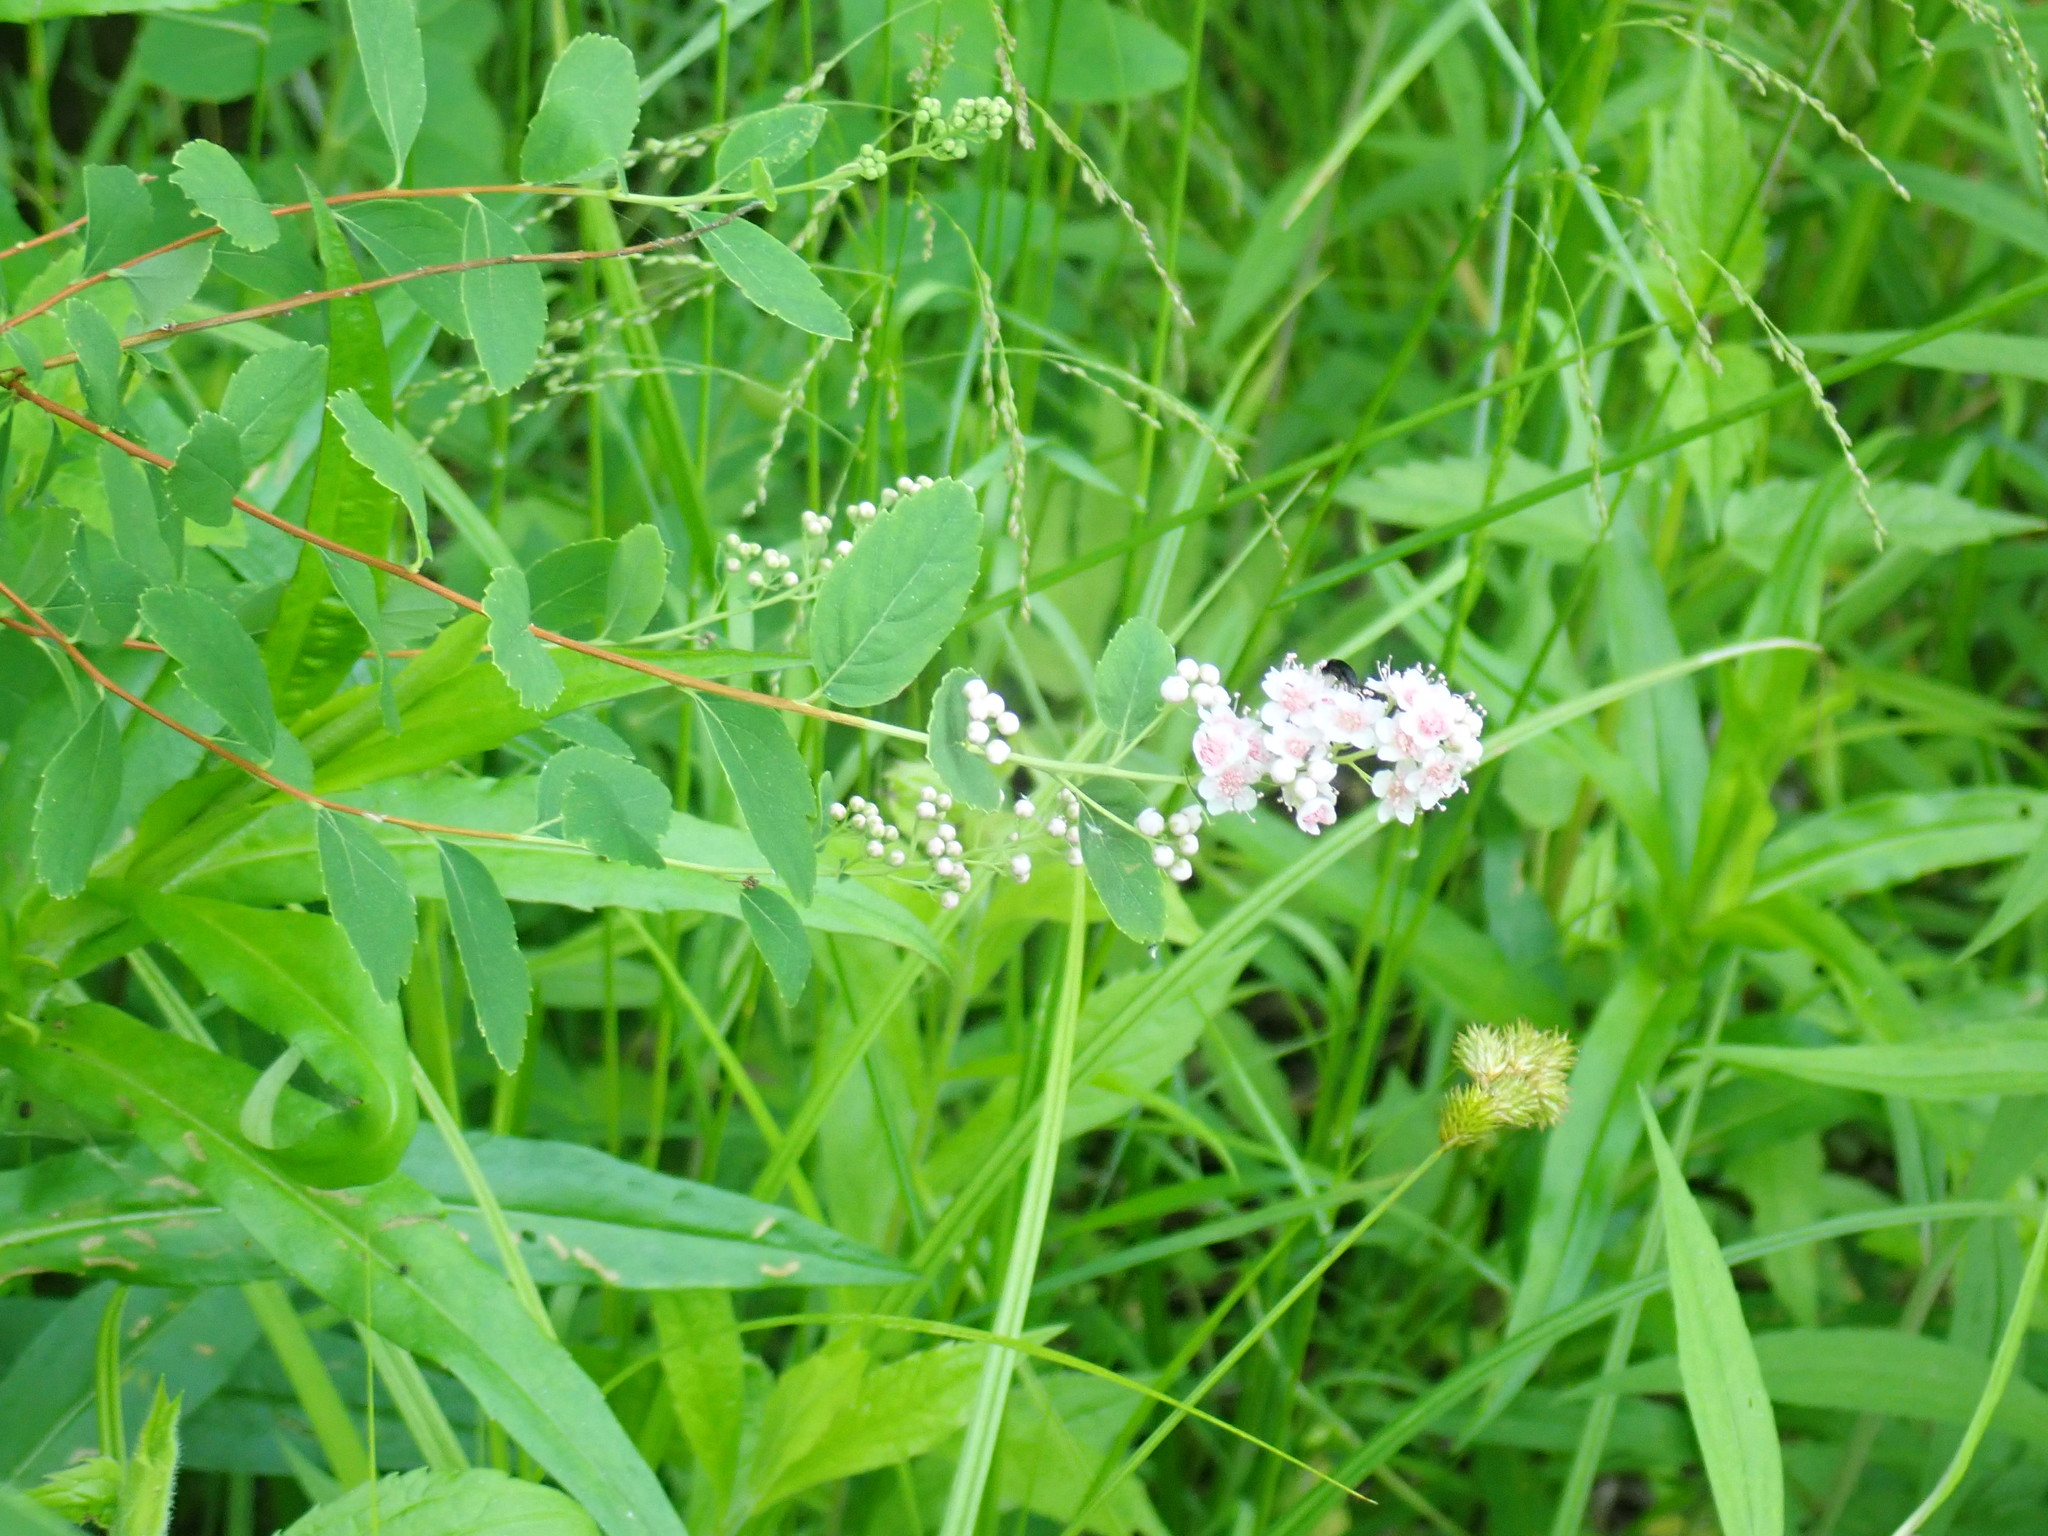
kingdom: Plantae
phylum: Tracheophyta
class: Magnoliopsida
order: Rosales
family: Rosaceae
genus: Spiraea
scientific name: Spiraea alba
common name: Pale bridewort
